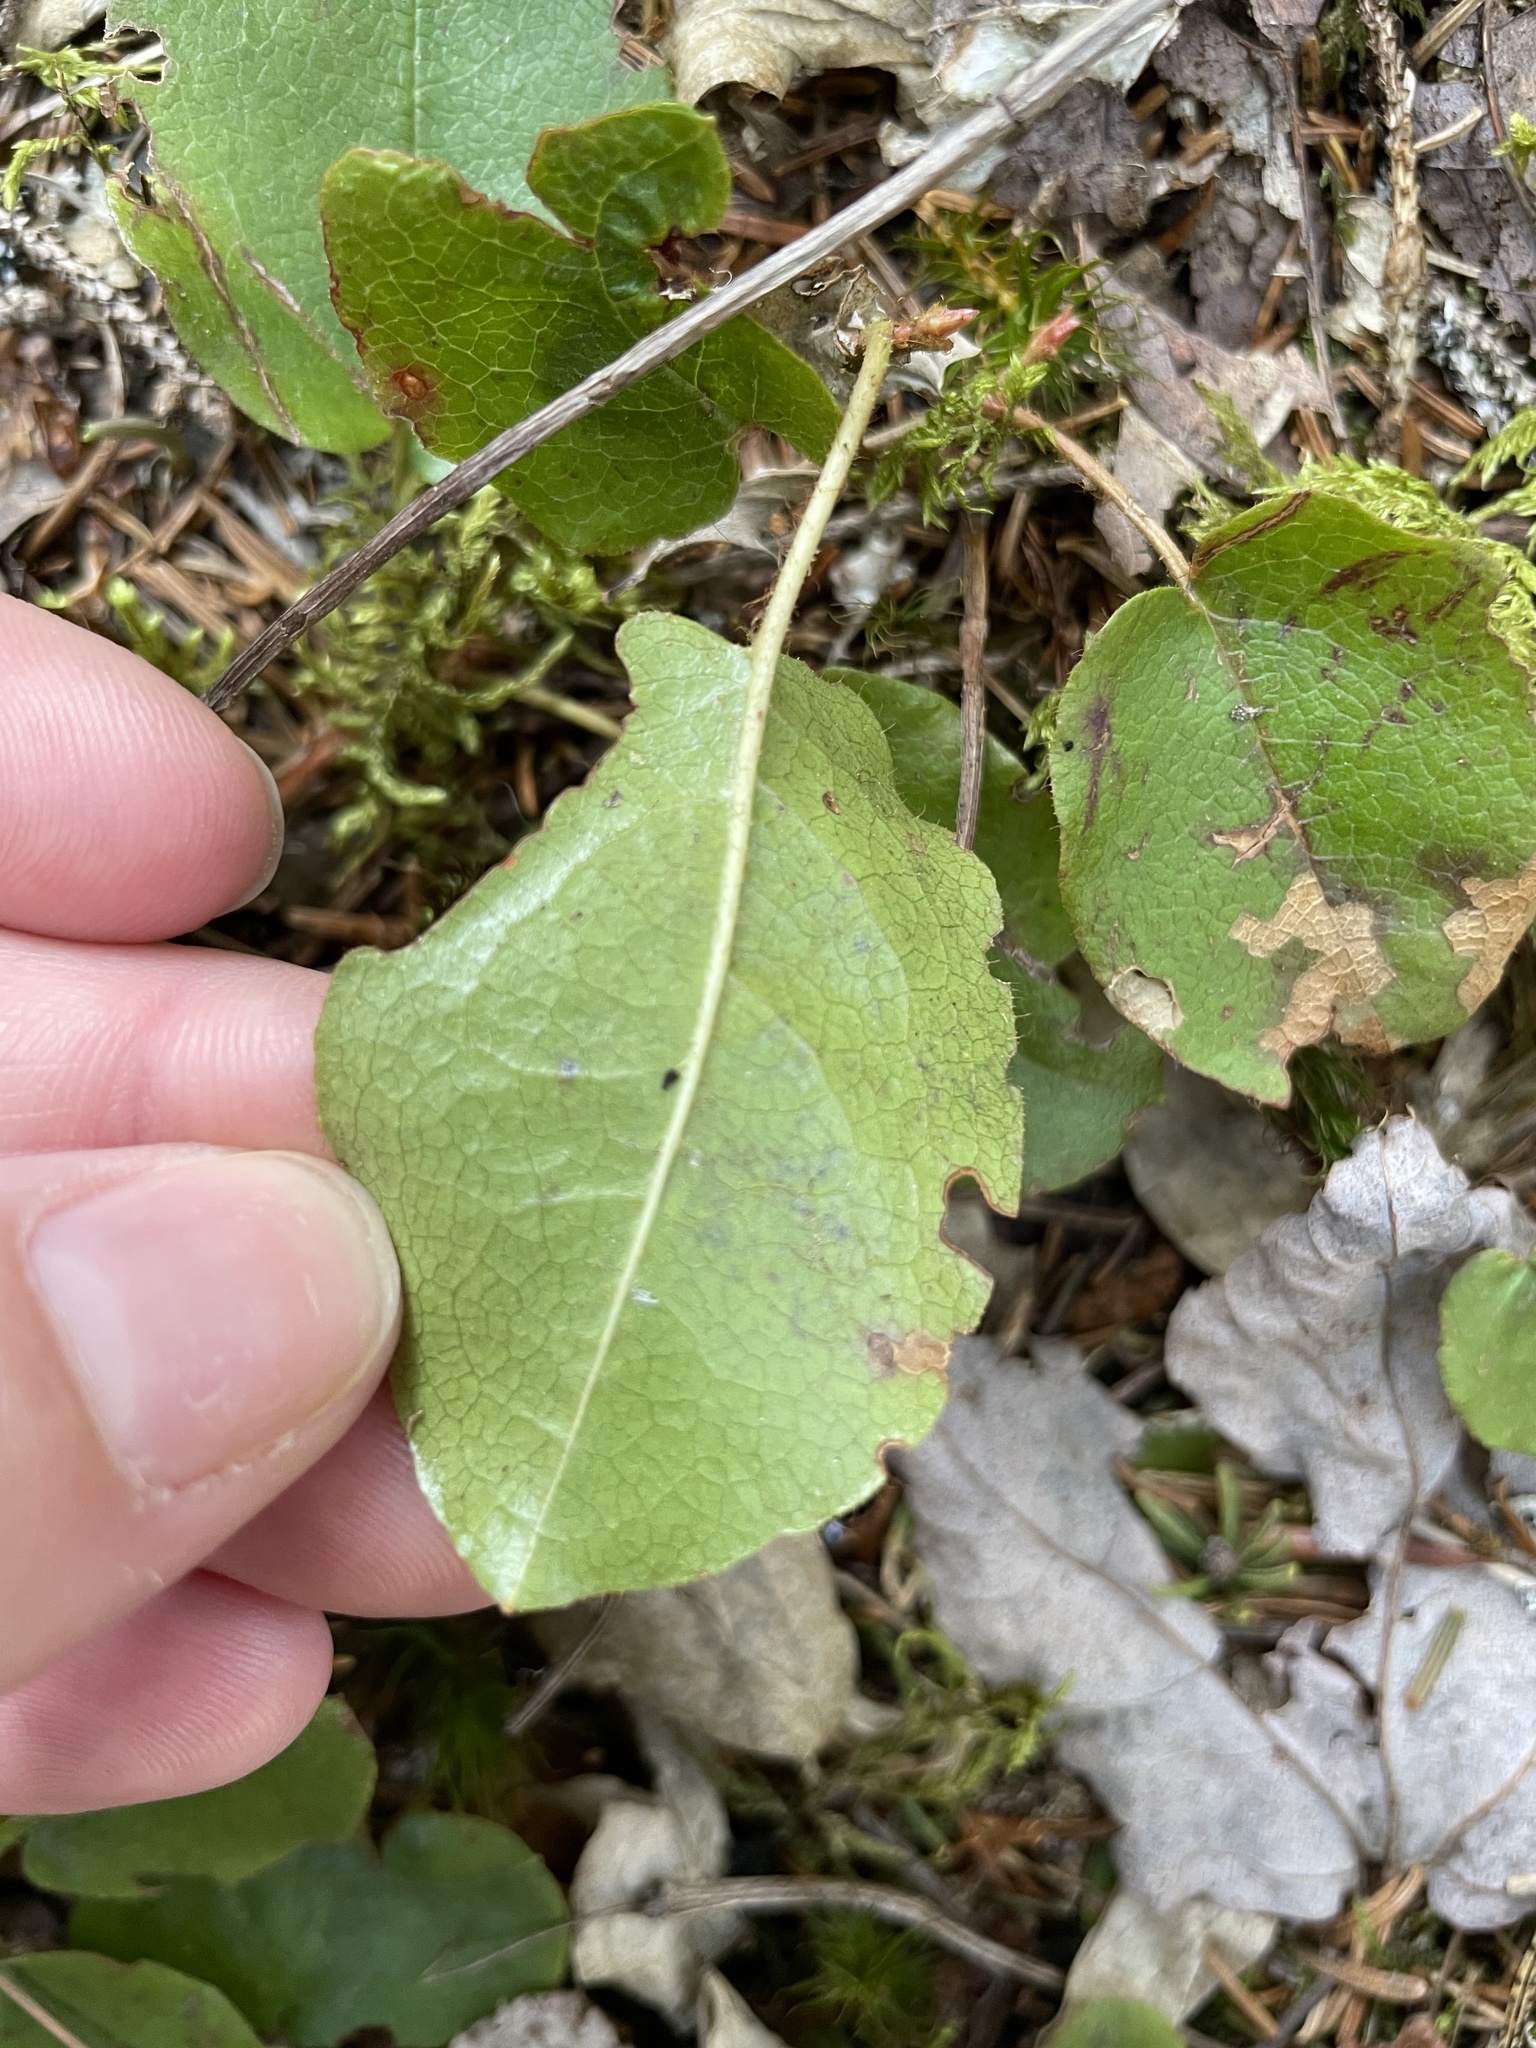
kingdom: Plantae
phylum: Tracheophyta
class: Magnoliopsida
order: Ericales
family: Ericaceae
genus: Epigaea
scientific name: Epigaea repens
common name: Gravelroot
